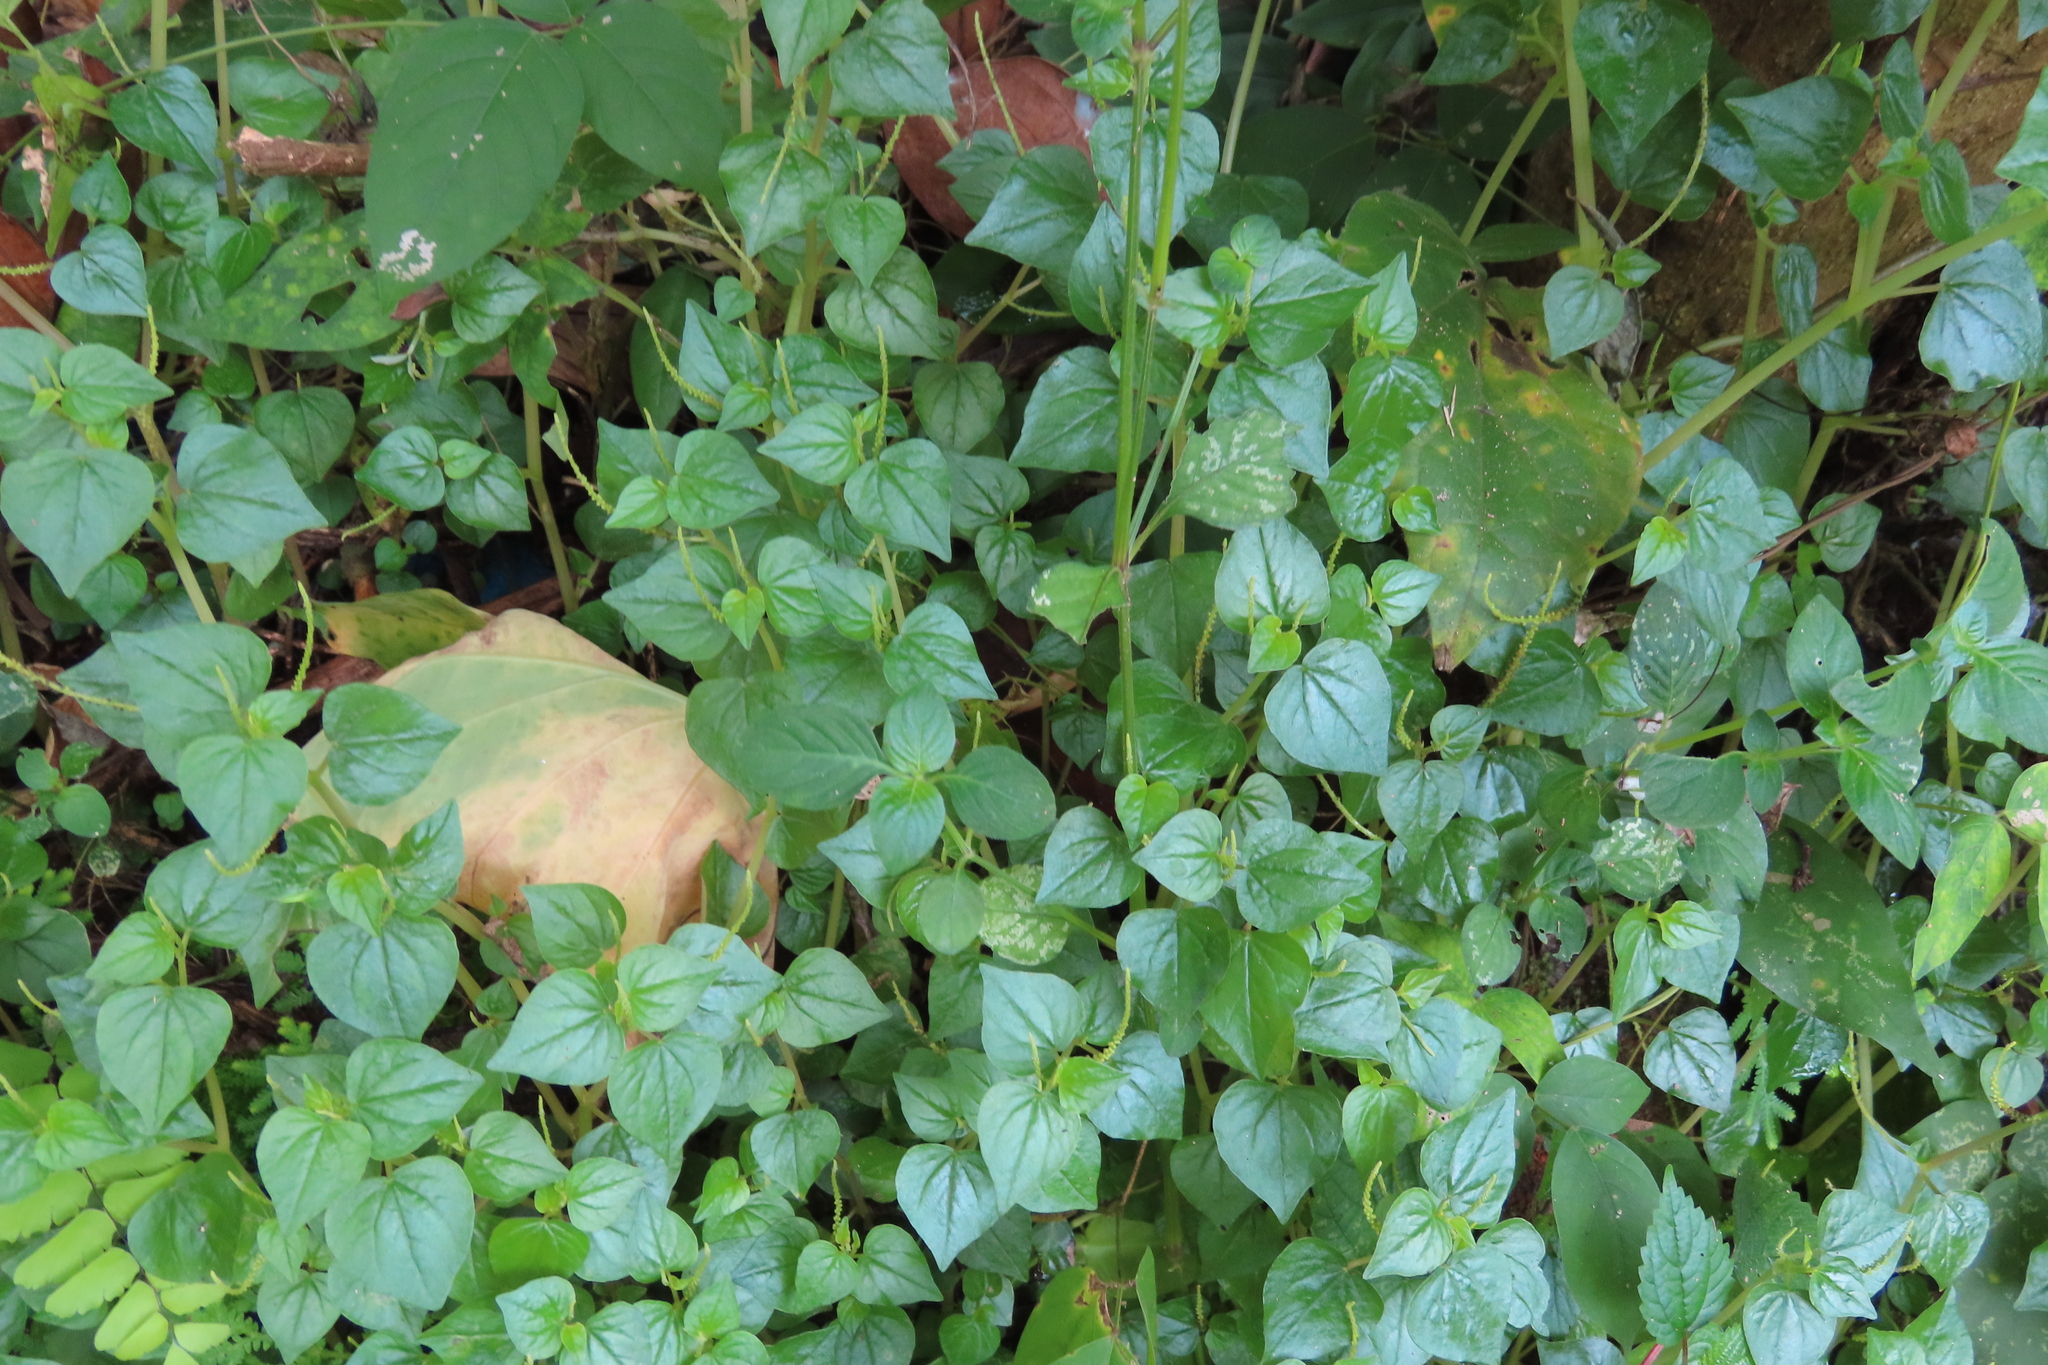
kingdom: Plantae
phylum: Tracheophyta
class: Magnoliopsida
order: Piperales
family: Piperaceae
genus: Peperomia
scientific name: Peperomia pellucida
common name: Man to man
